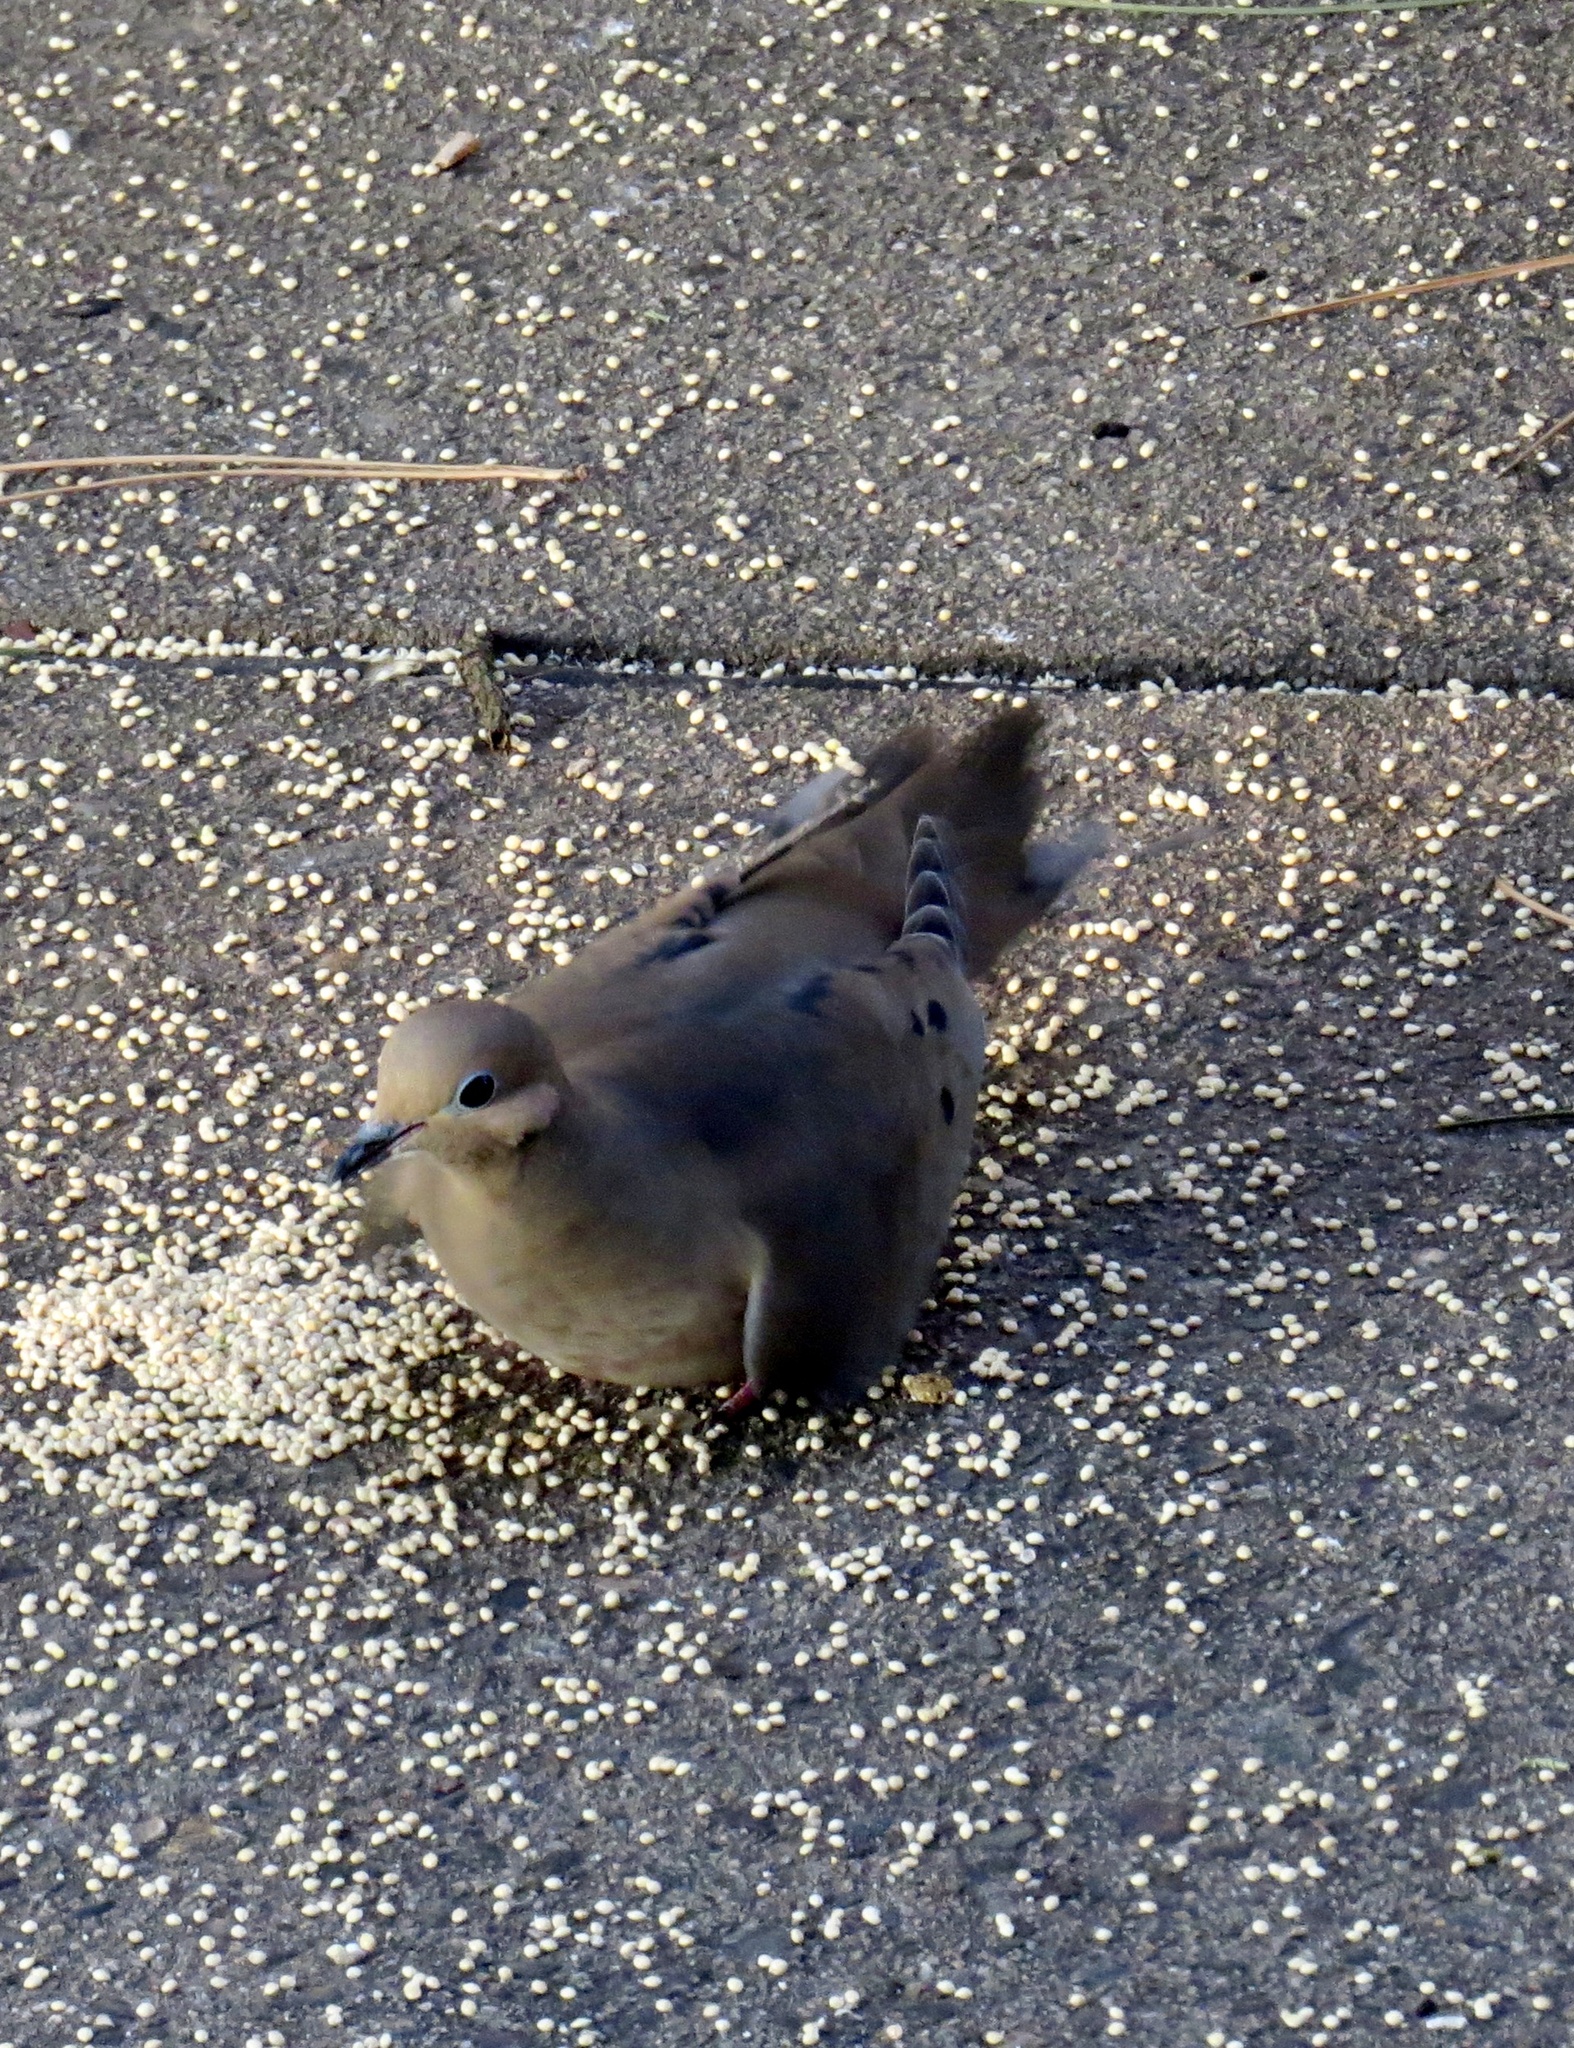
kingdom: Animalia
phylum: Chordata
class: Aves
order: Columbiformes
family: Columbidae
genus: Zenaida
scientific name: Zenaida macroura
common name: Mourning dove
